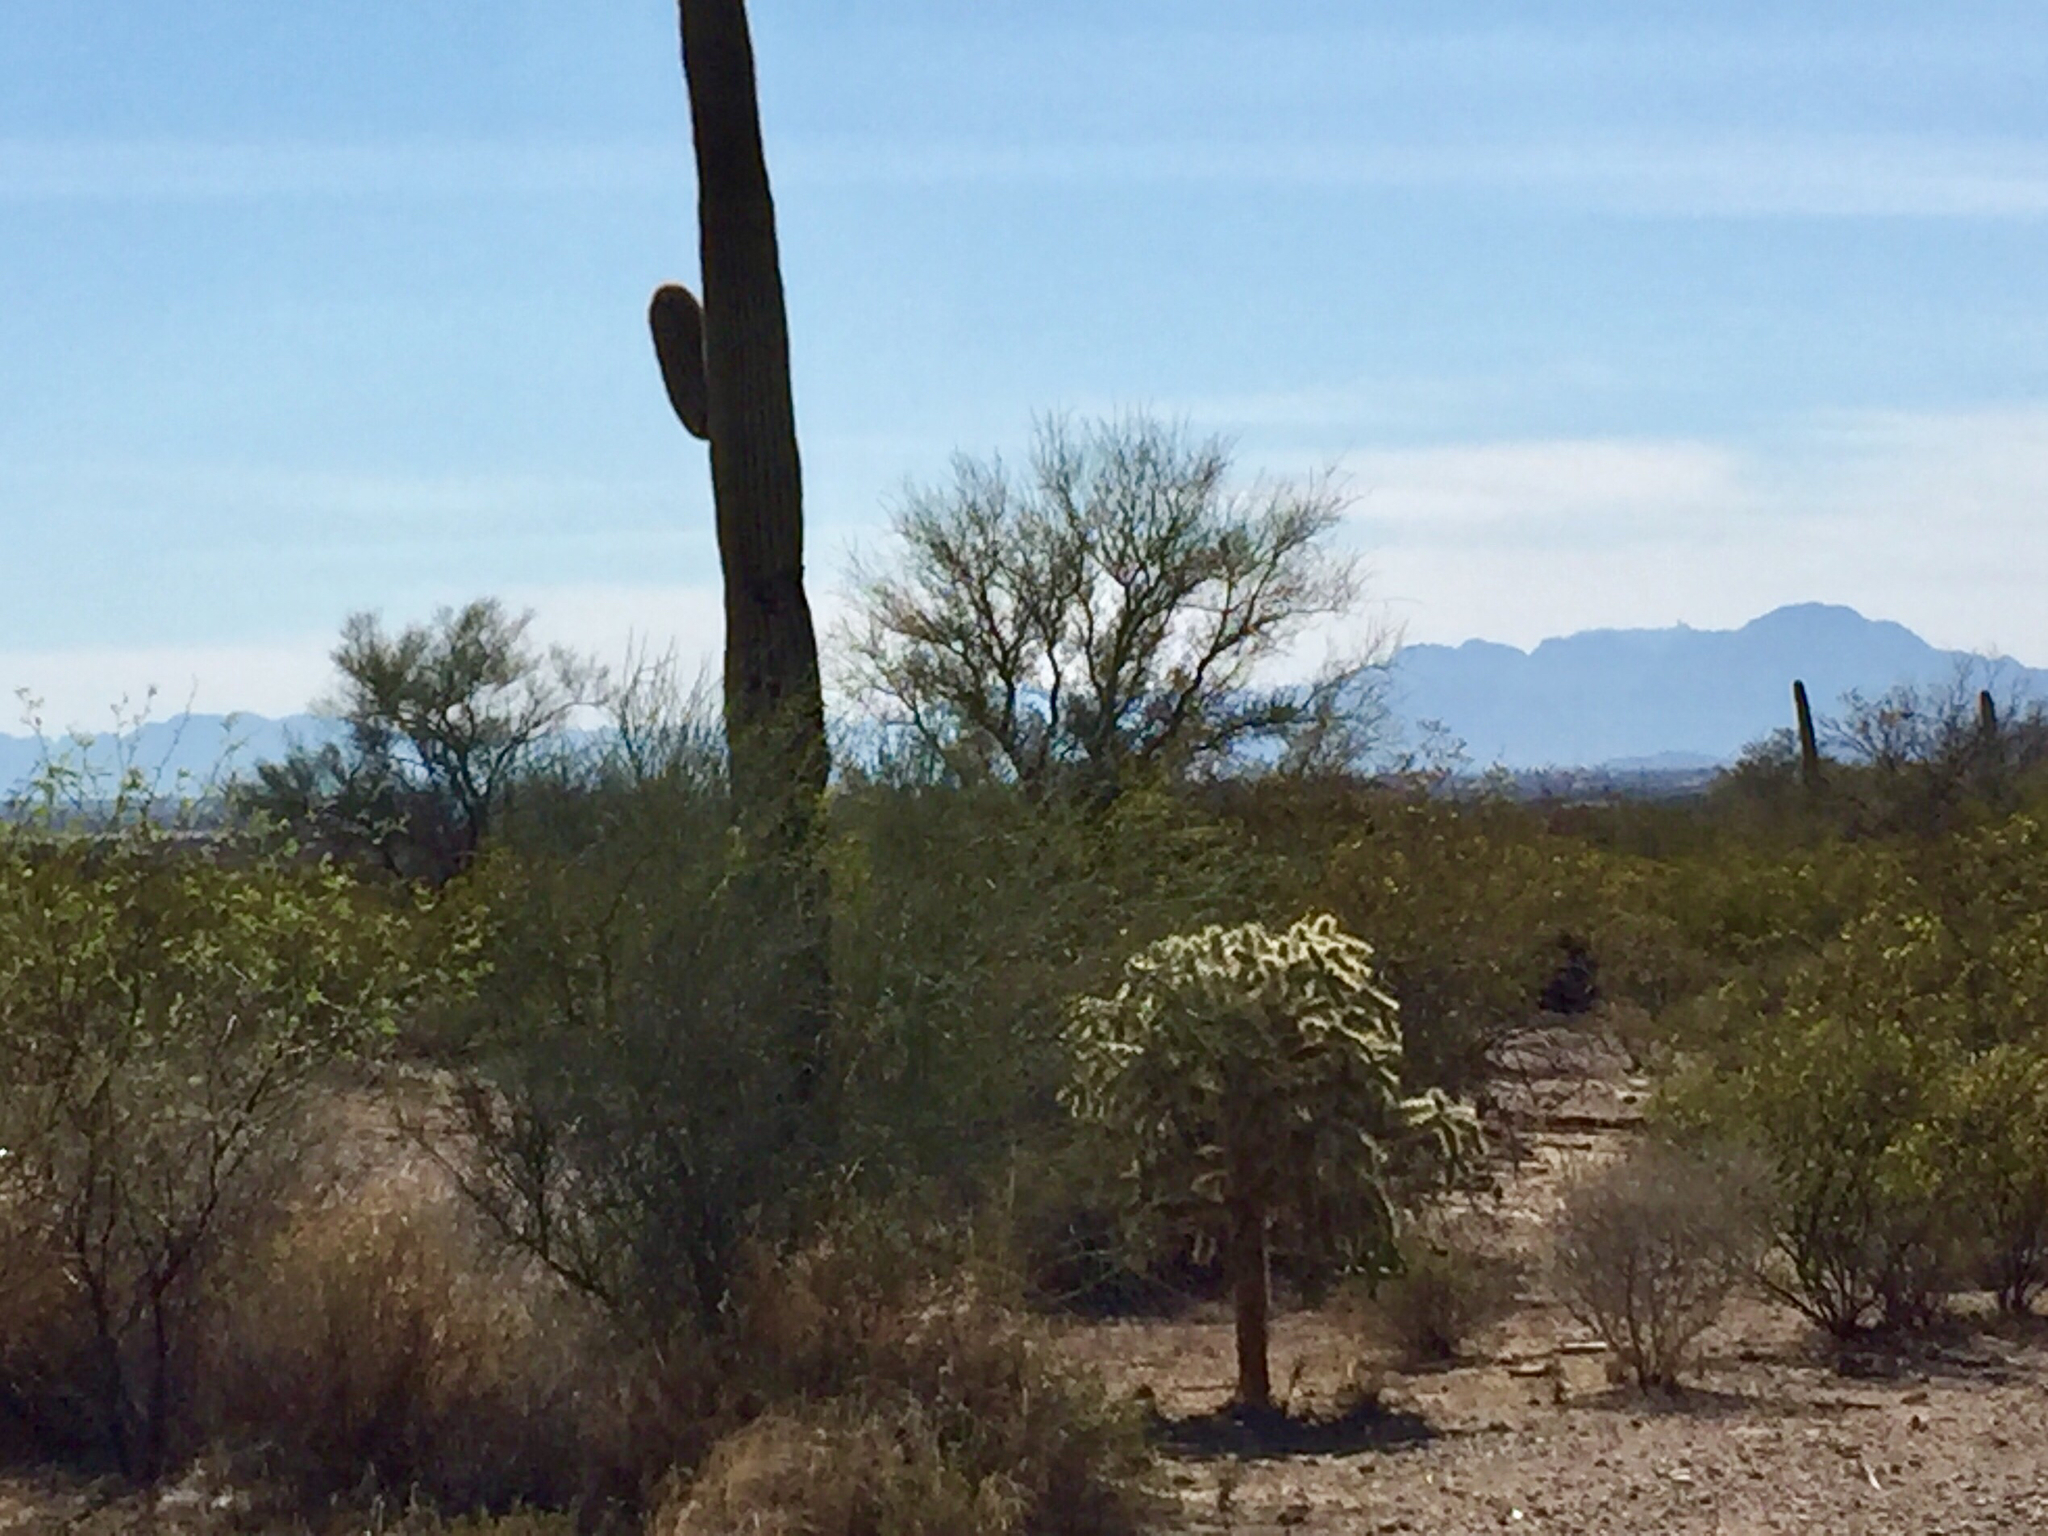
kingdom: Plantae
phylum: Tracheophyta
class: Magnoliopsida
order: Caryophyllales
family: Cactaceae
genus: Cylindropuntia
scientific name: Cylindropuntia fulgida
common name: Jumping cholla
